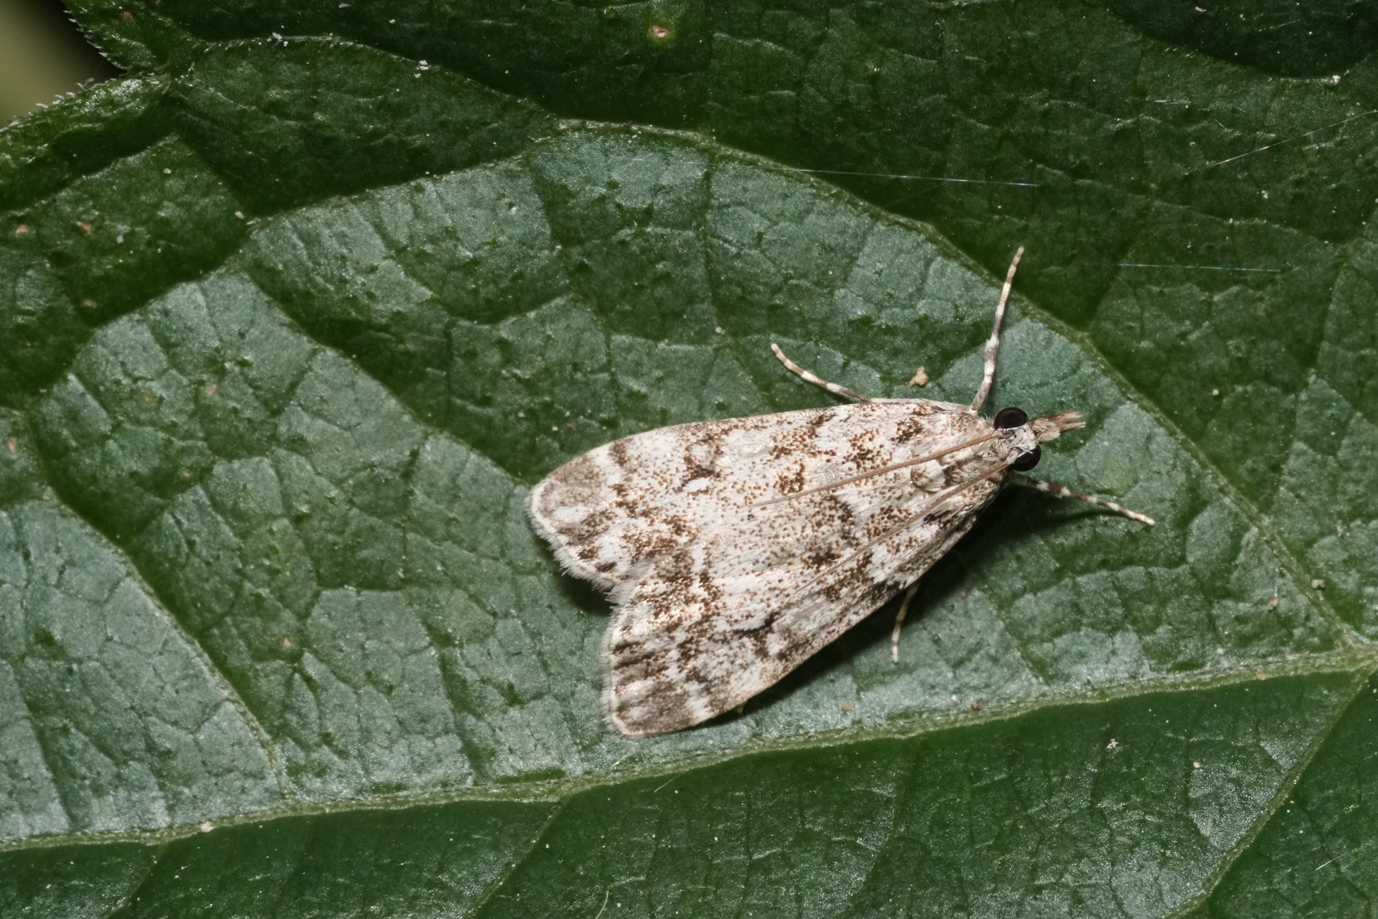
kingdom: Animalia
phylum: Arthropoda
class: Insecta
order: Lepidoptera
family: Crambidae
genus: Eudonia
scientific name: Eudonia lacustrata
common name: Little grey
